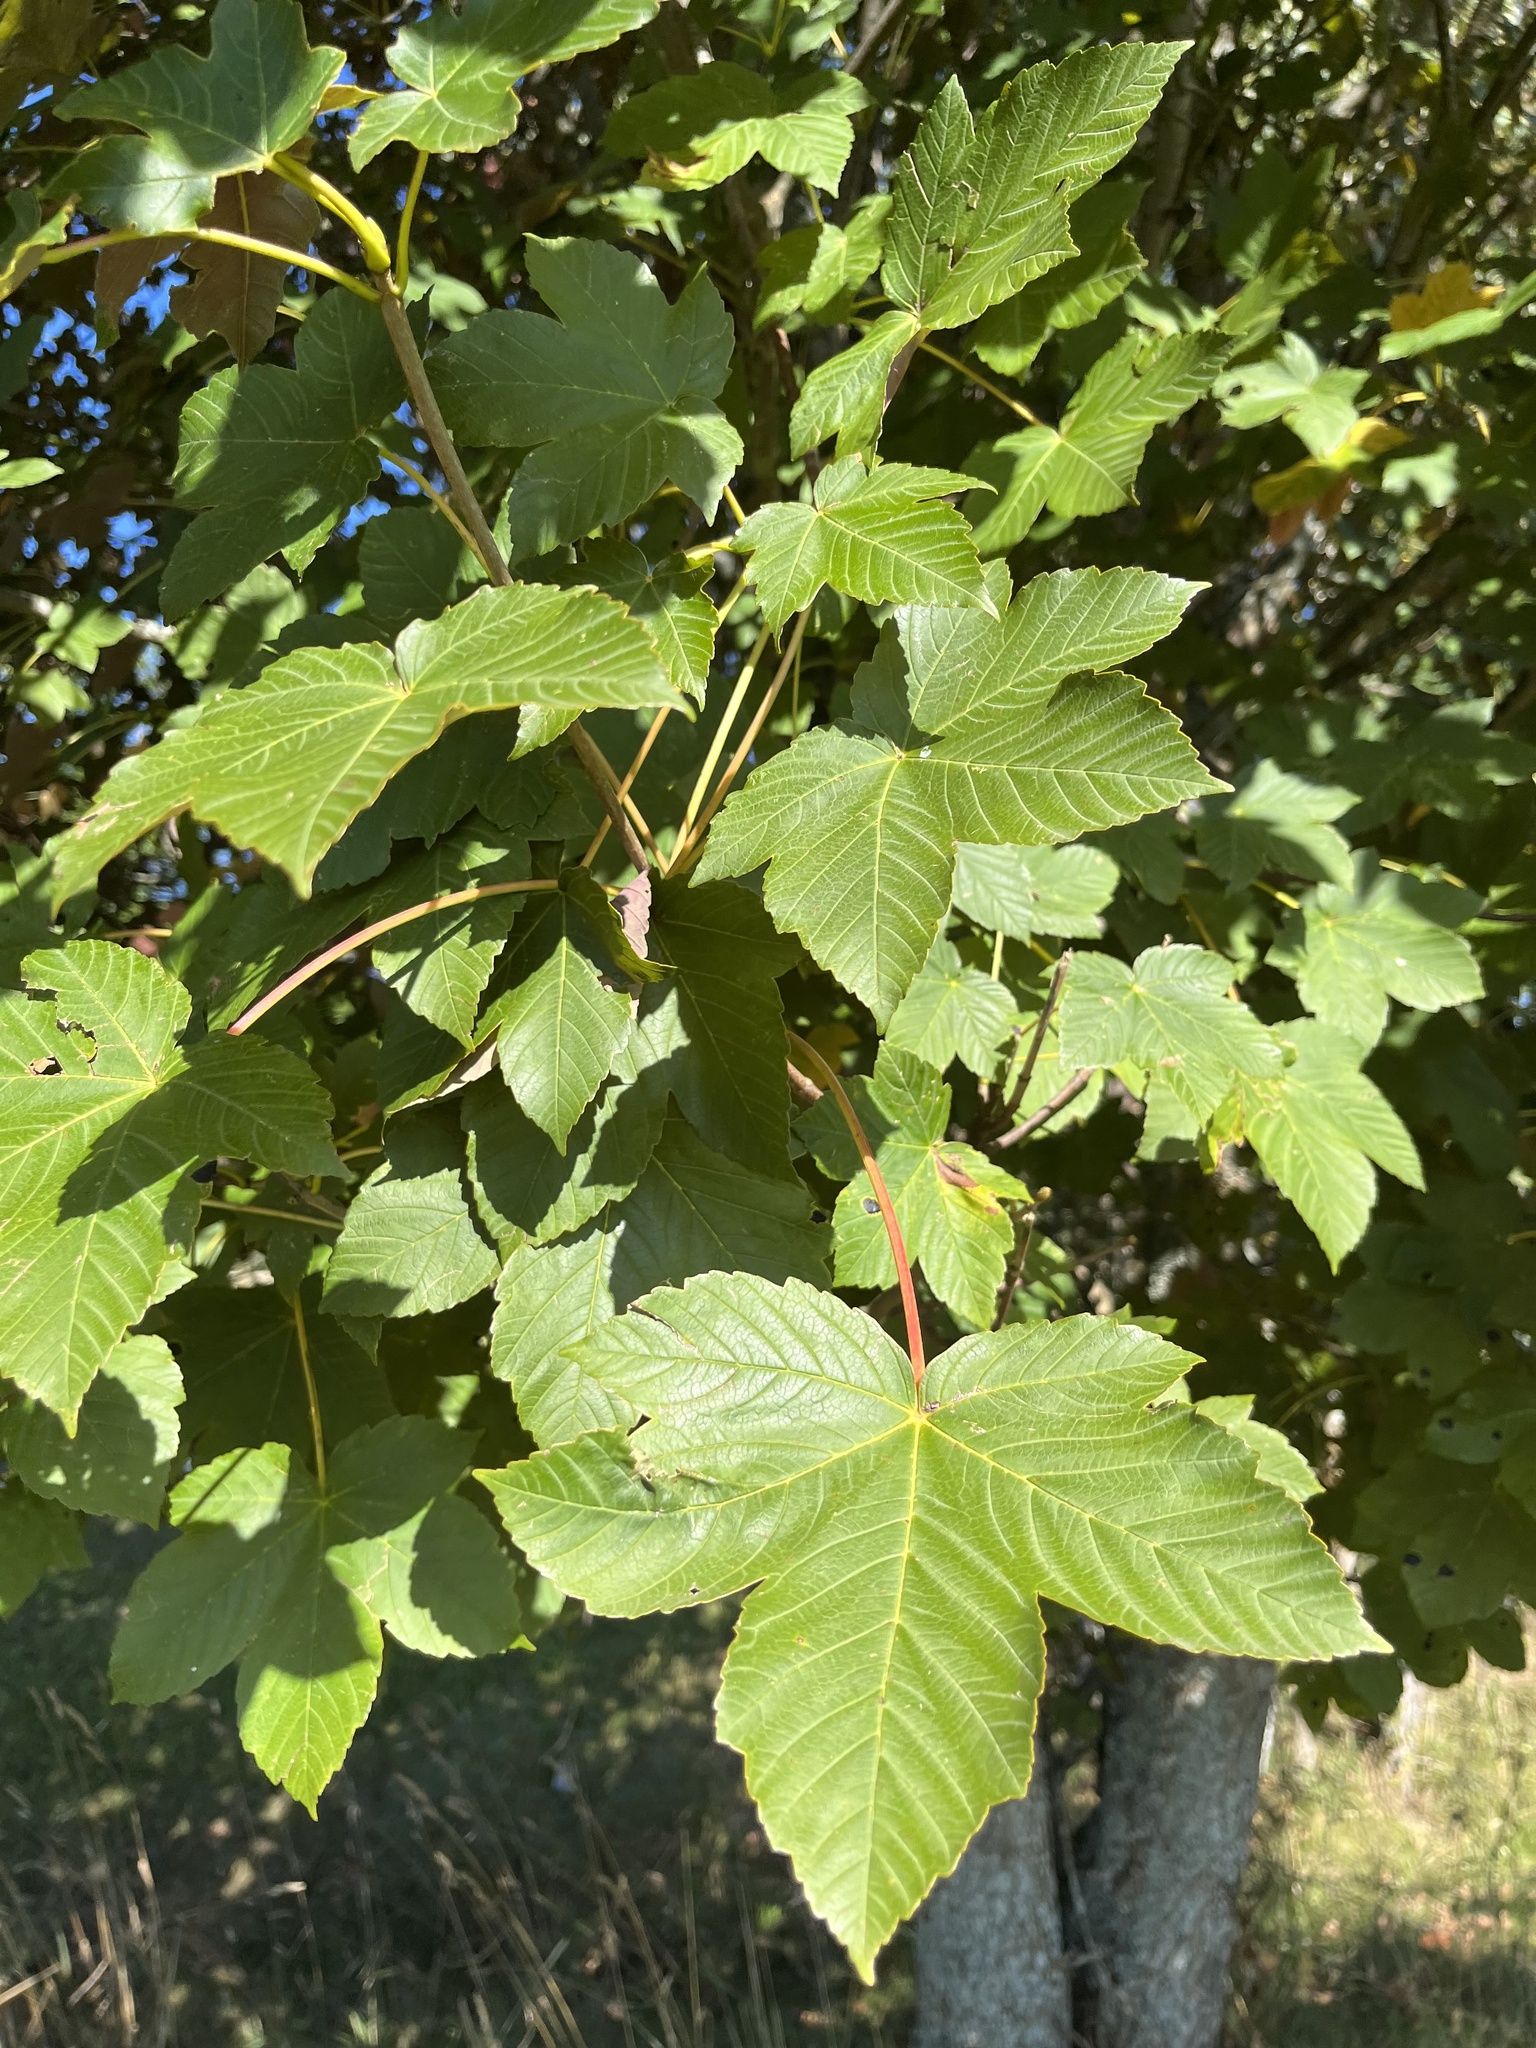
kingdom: Plantae
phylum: Tracheophyta
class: Magnoliopsida
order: Sapindales
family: Sapindaceae
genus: Acer
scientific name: Acer pseudoplatanus
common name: Sycamore
